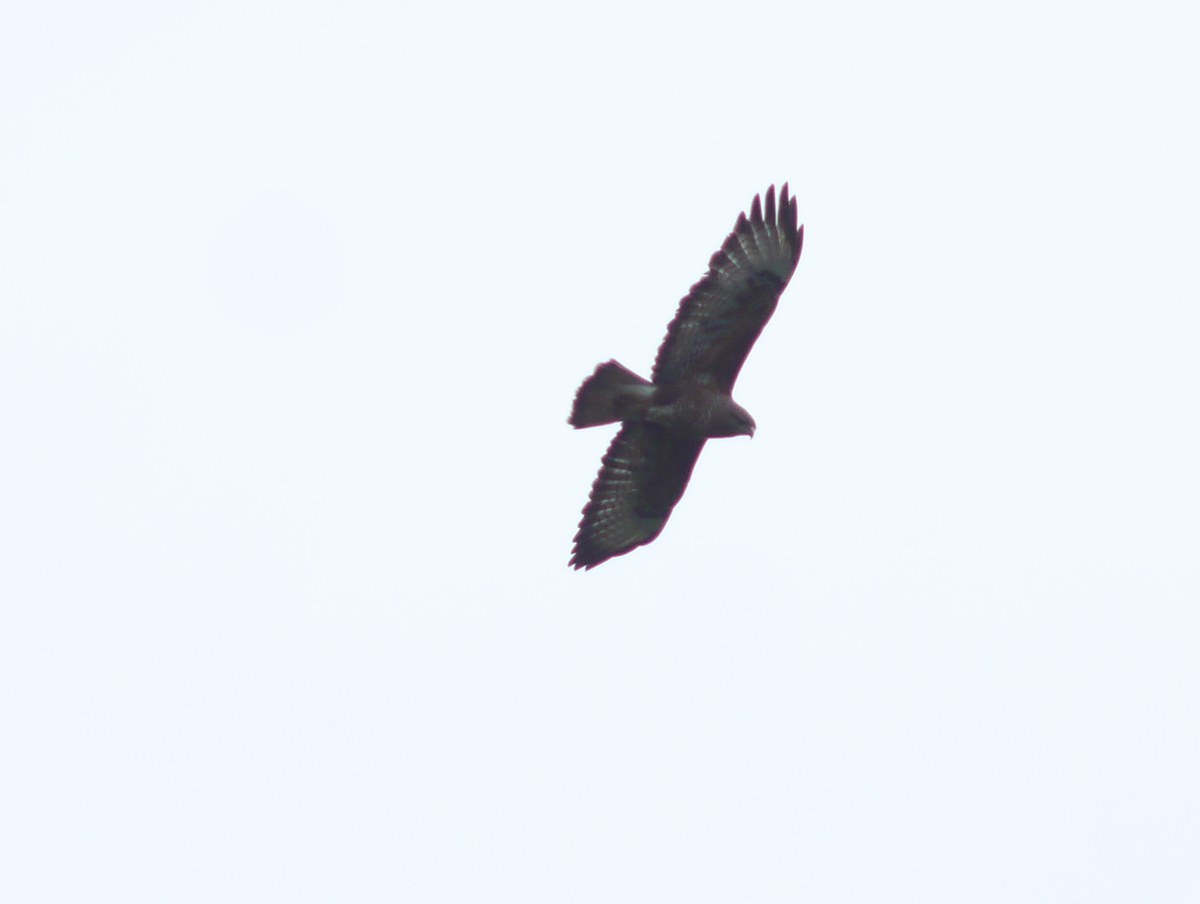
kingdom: Animalia
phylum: Chordata
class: Aves
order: Accipitriformes
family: Accipitridae
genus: Buteo
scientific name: Buteo buteo
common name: Common buzzard
